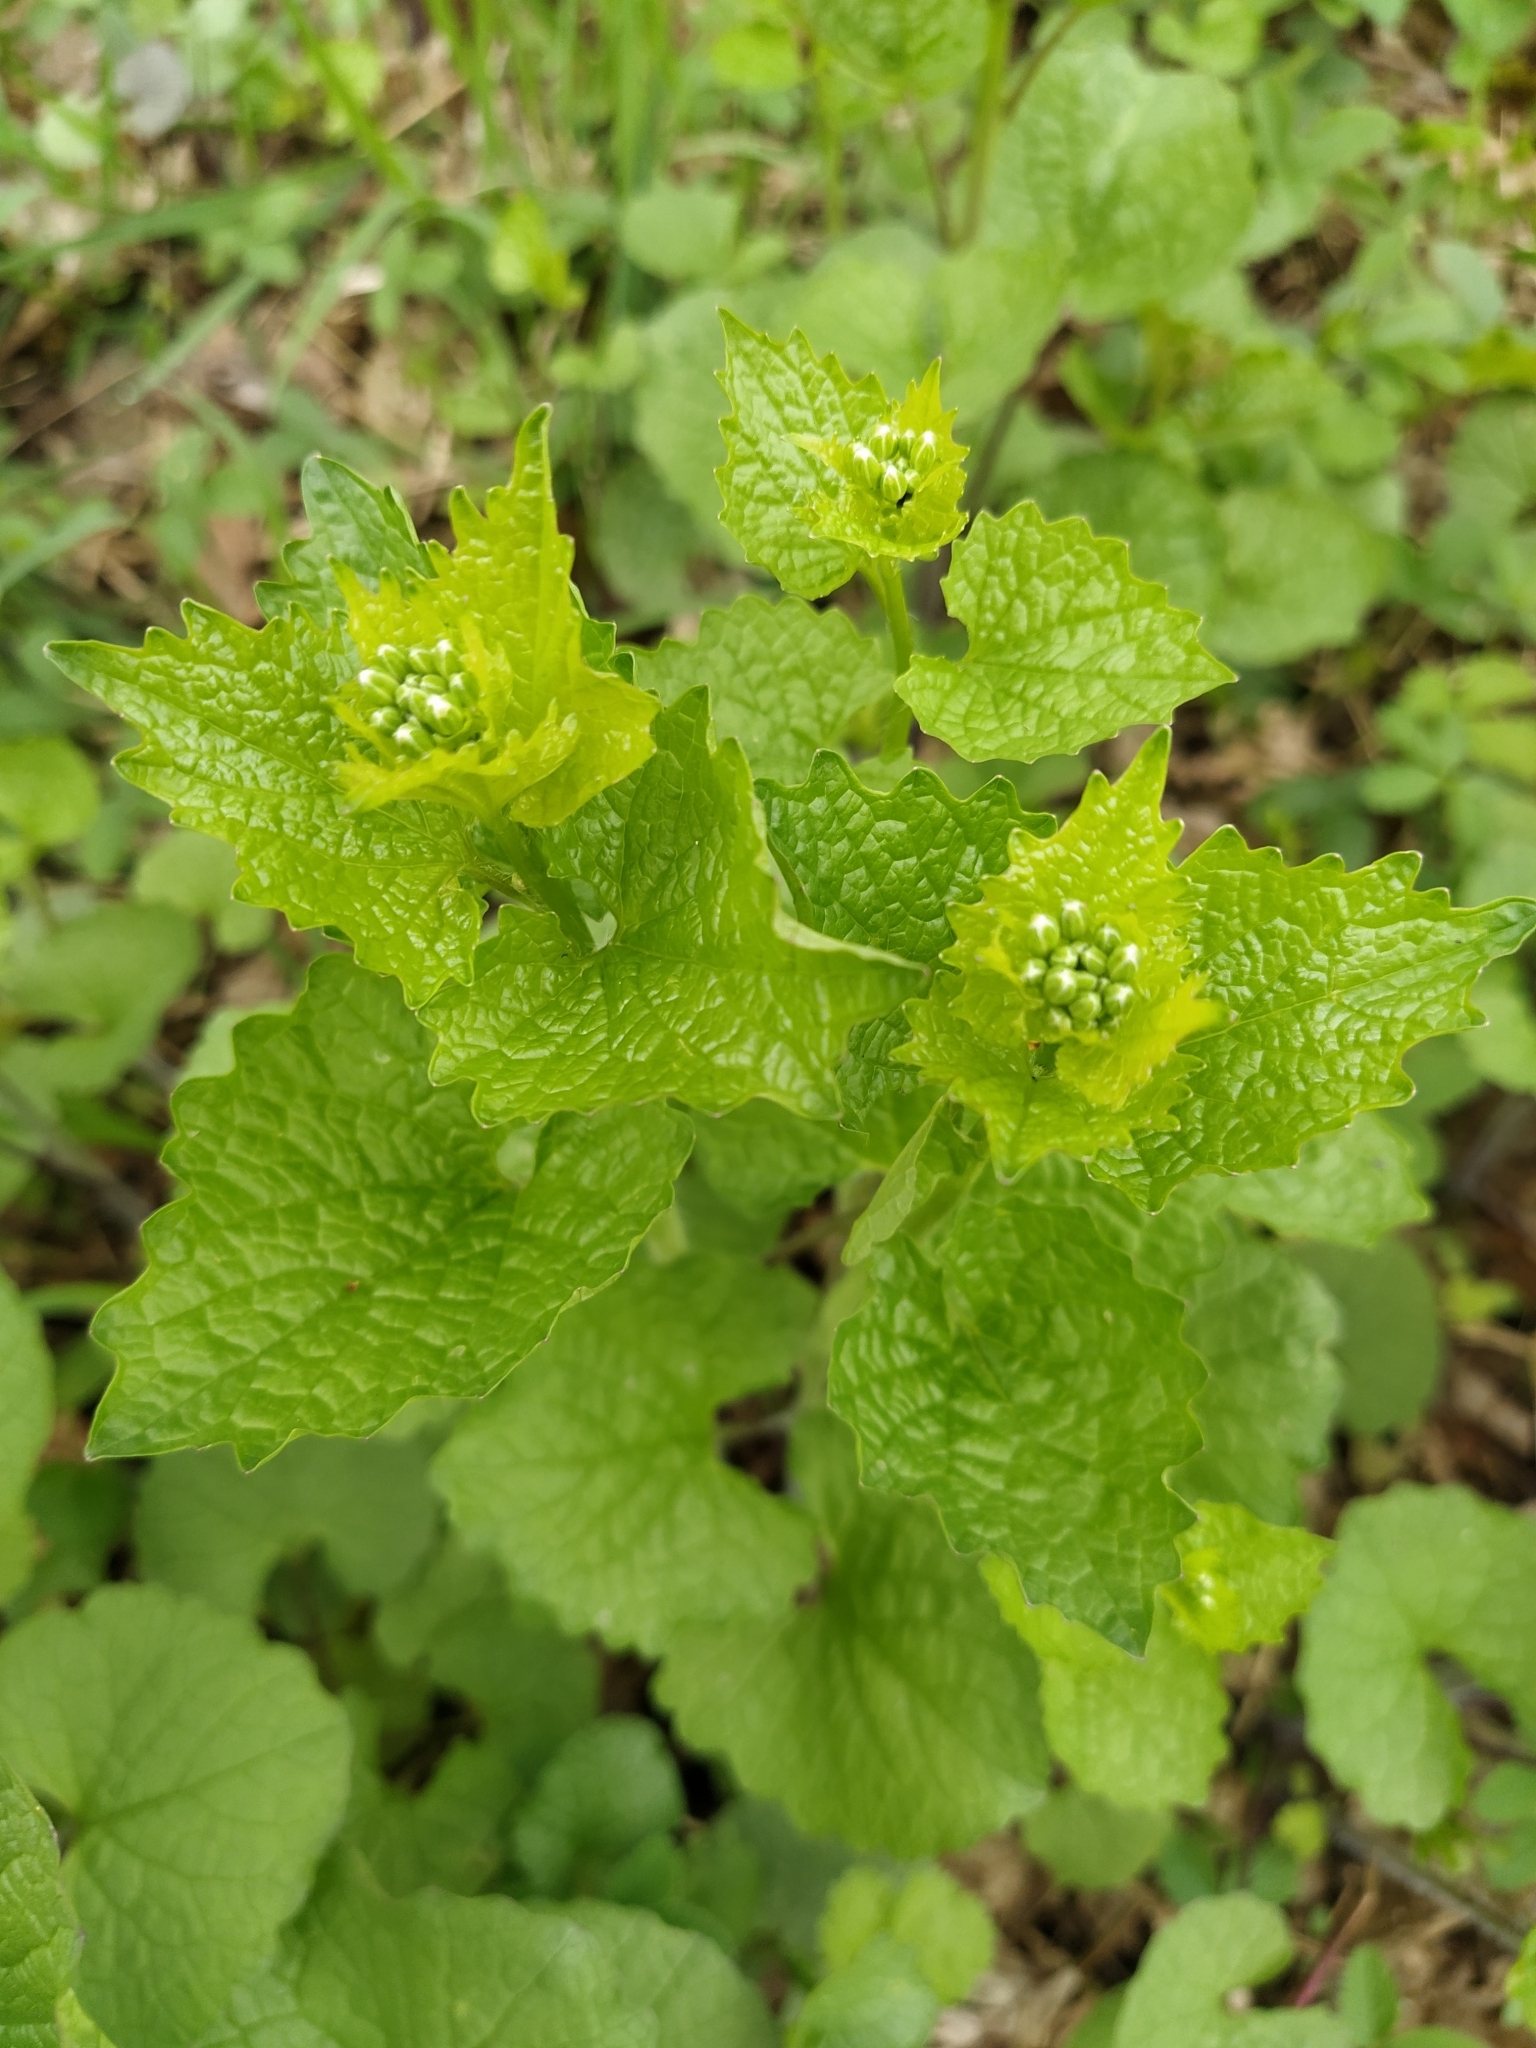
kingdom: Plantae
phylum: Tracheophyta
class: Magnoliopsida
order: Brassicales
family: Brassicaceae
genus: Alliaria
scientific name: Alliaria petiolata
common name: Garlic mustard
